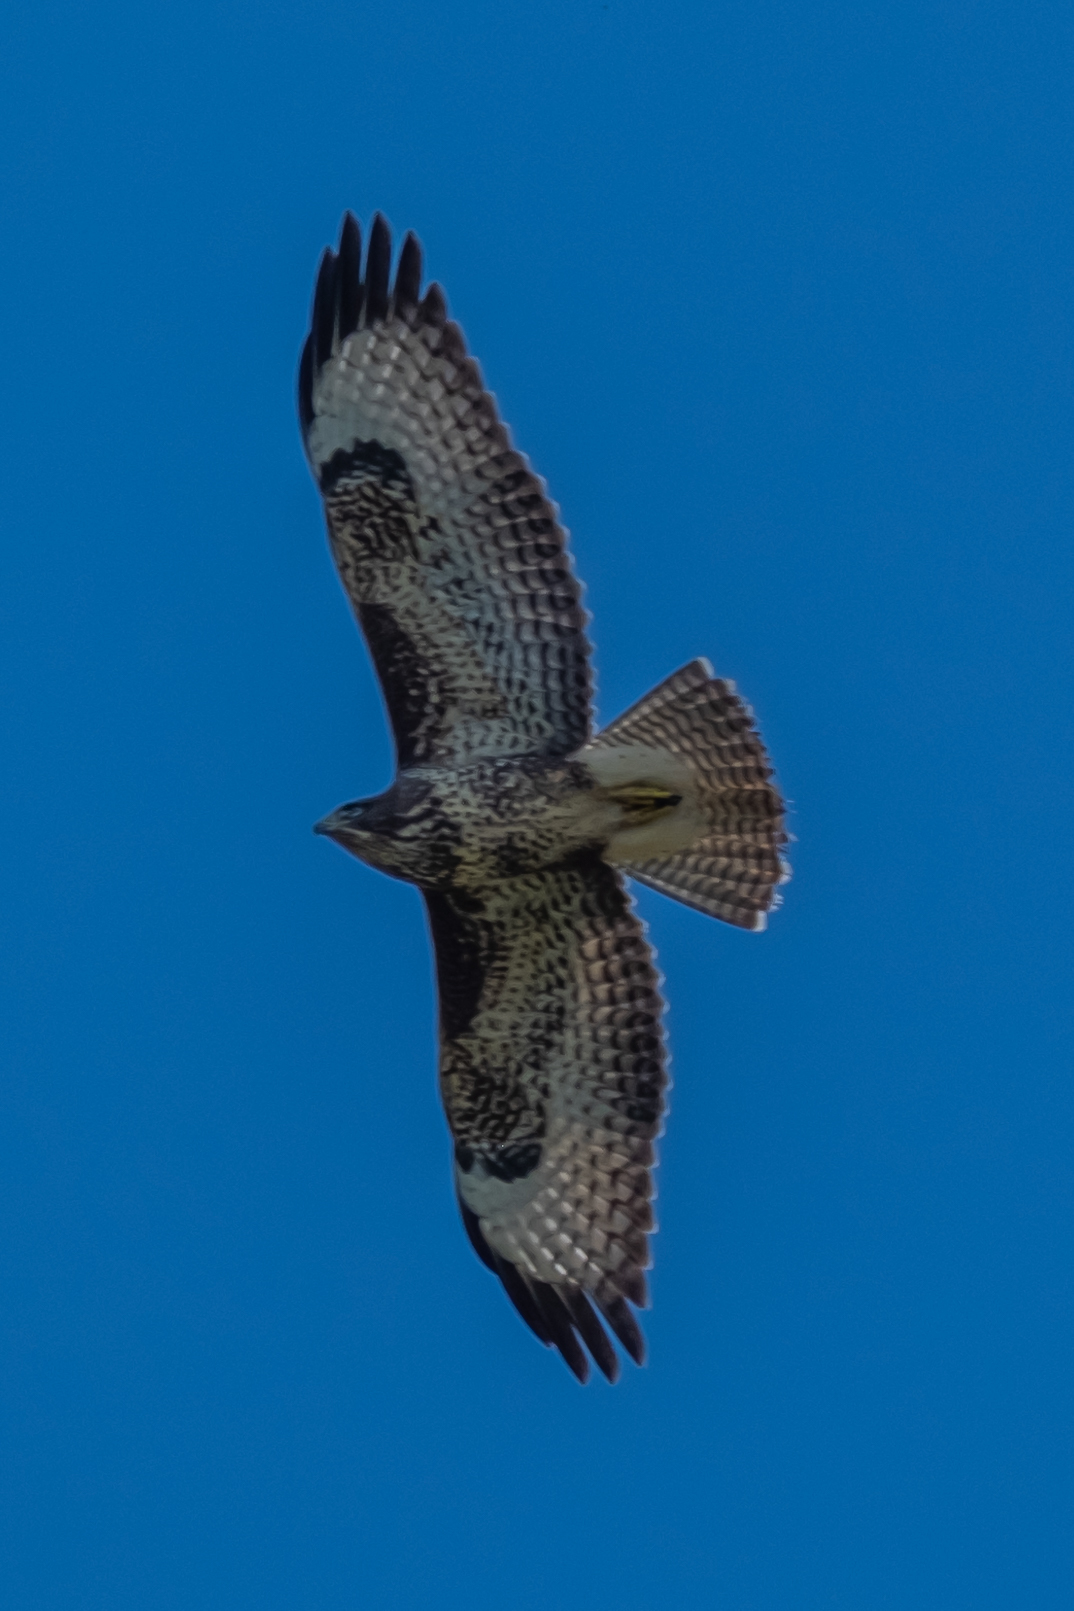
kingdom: Animalia
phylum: Chordata
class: Aves
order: Accipitriformes
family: Accipitridae
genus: Buteo
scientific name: Buteo buteo
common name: Common buzzard
